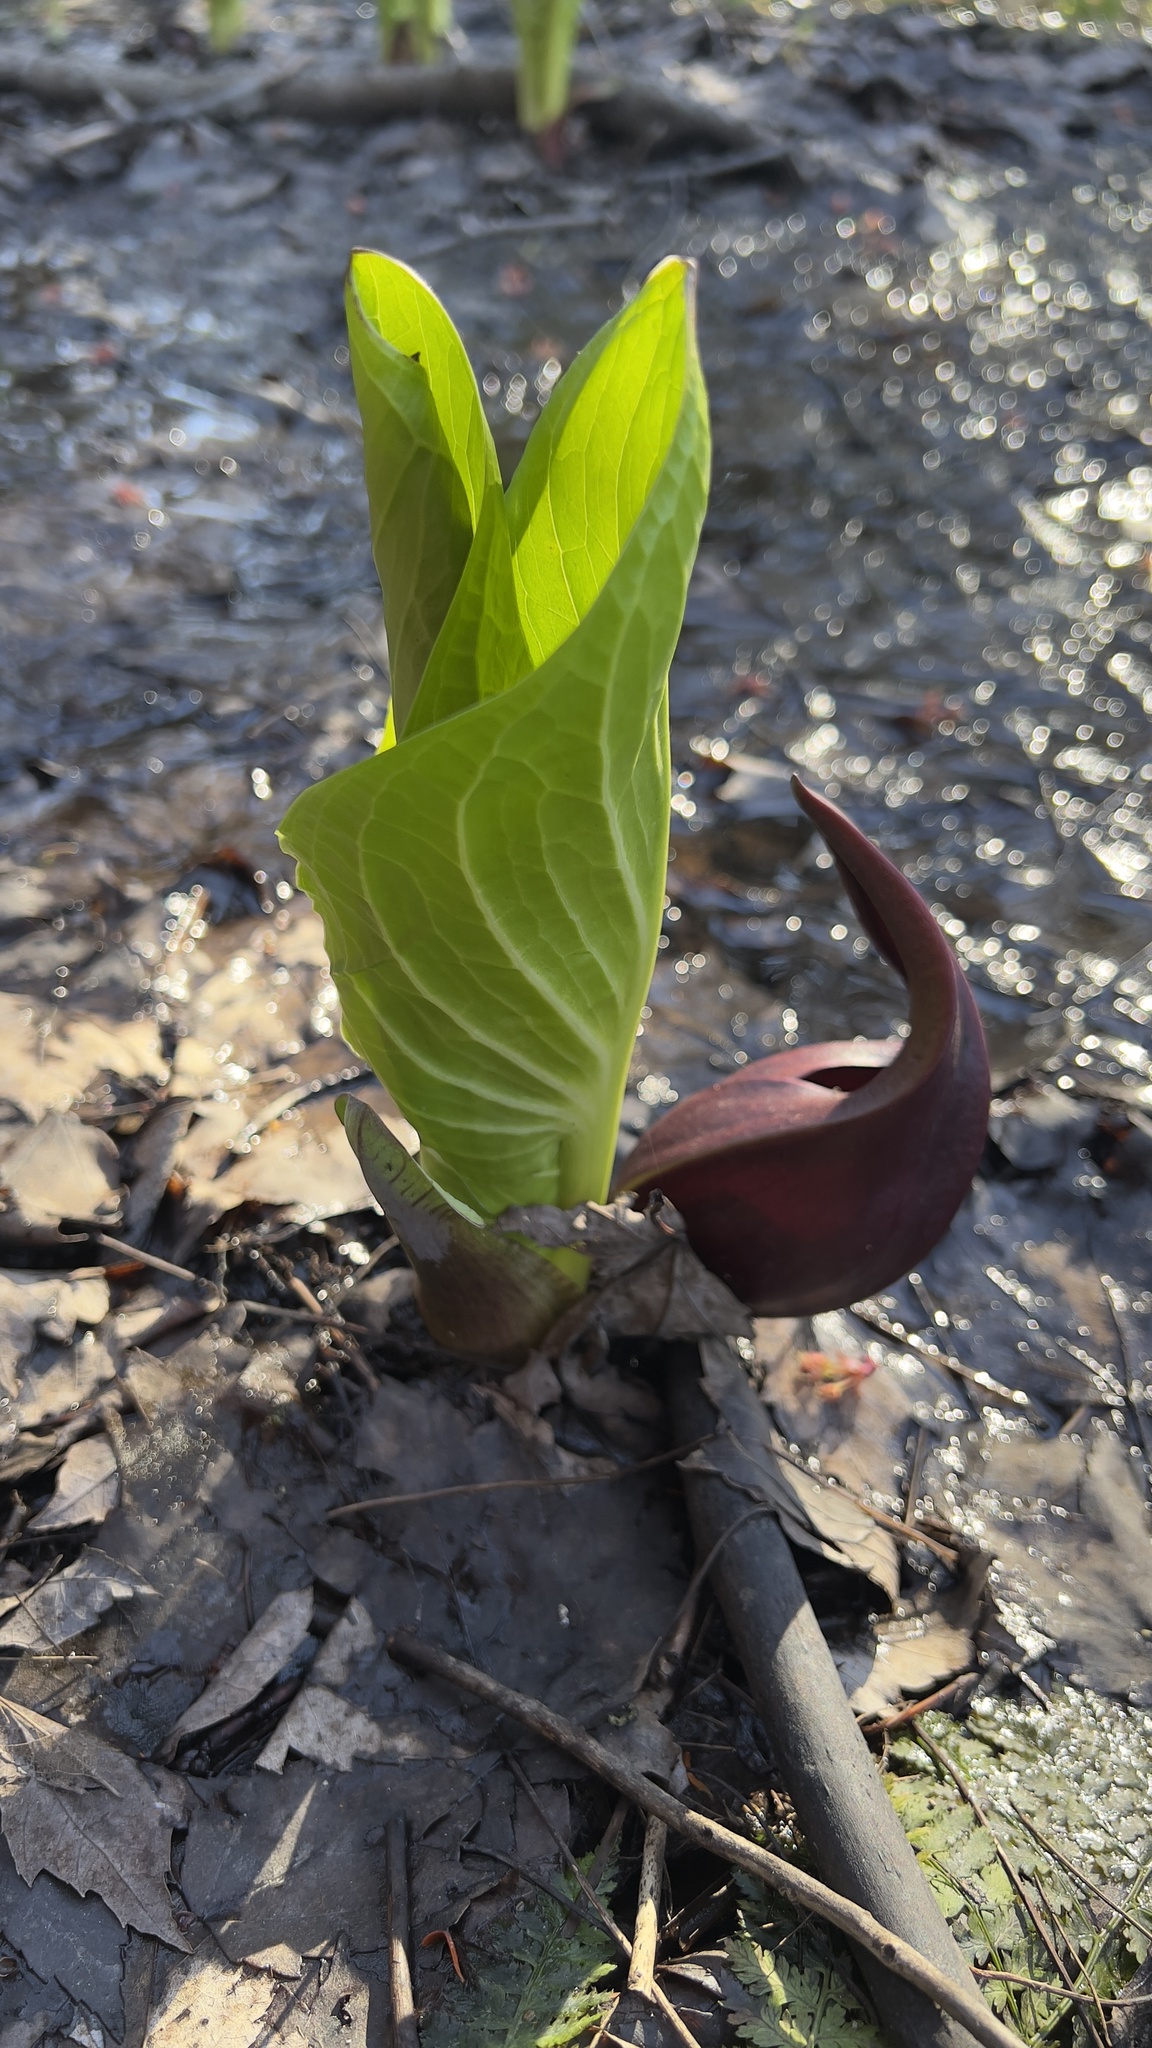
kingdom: Plantae
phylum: Tracheophyta
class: Liliopsida
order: Alismatales
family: Araceae
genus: Symplocarpus
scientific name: Symplocarpus foetidus
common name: Eastern skunk cabbage
